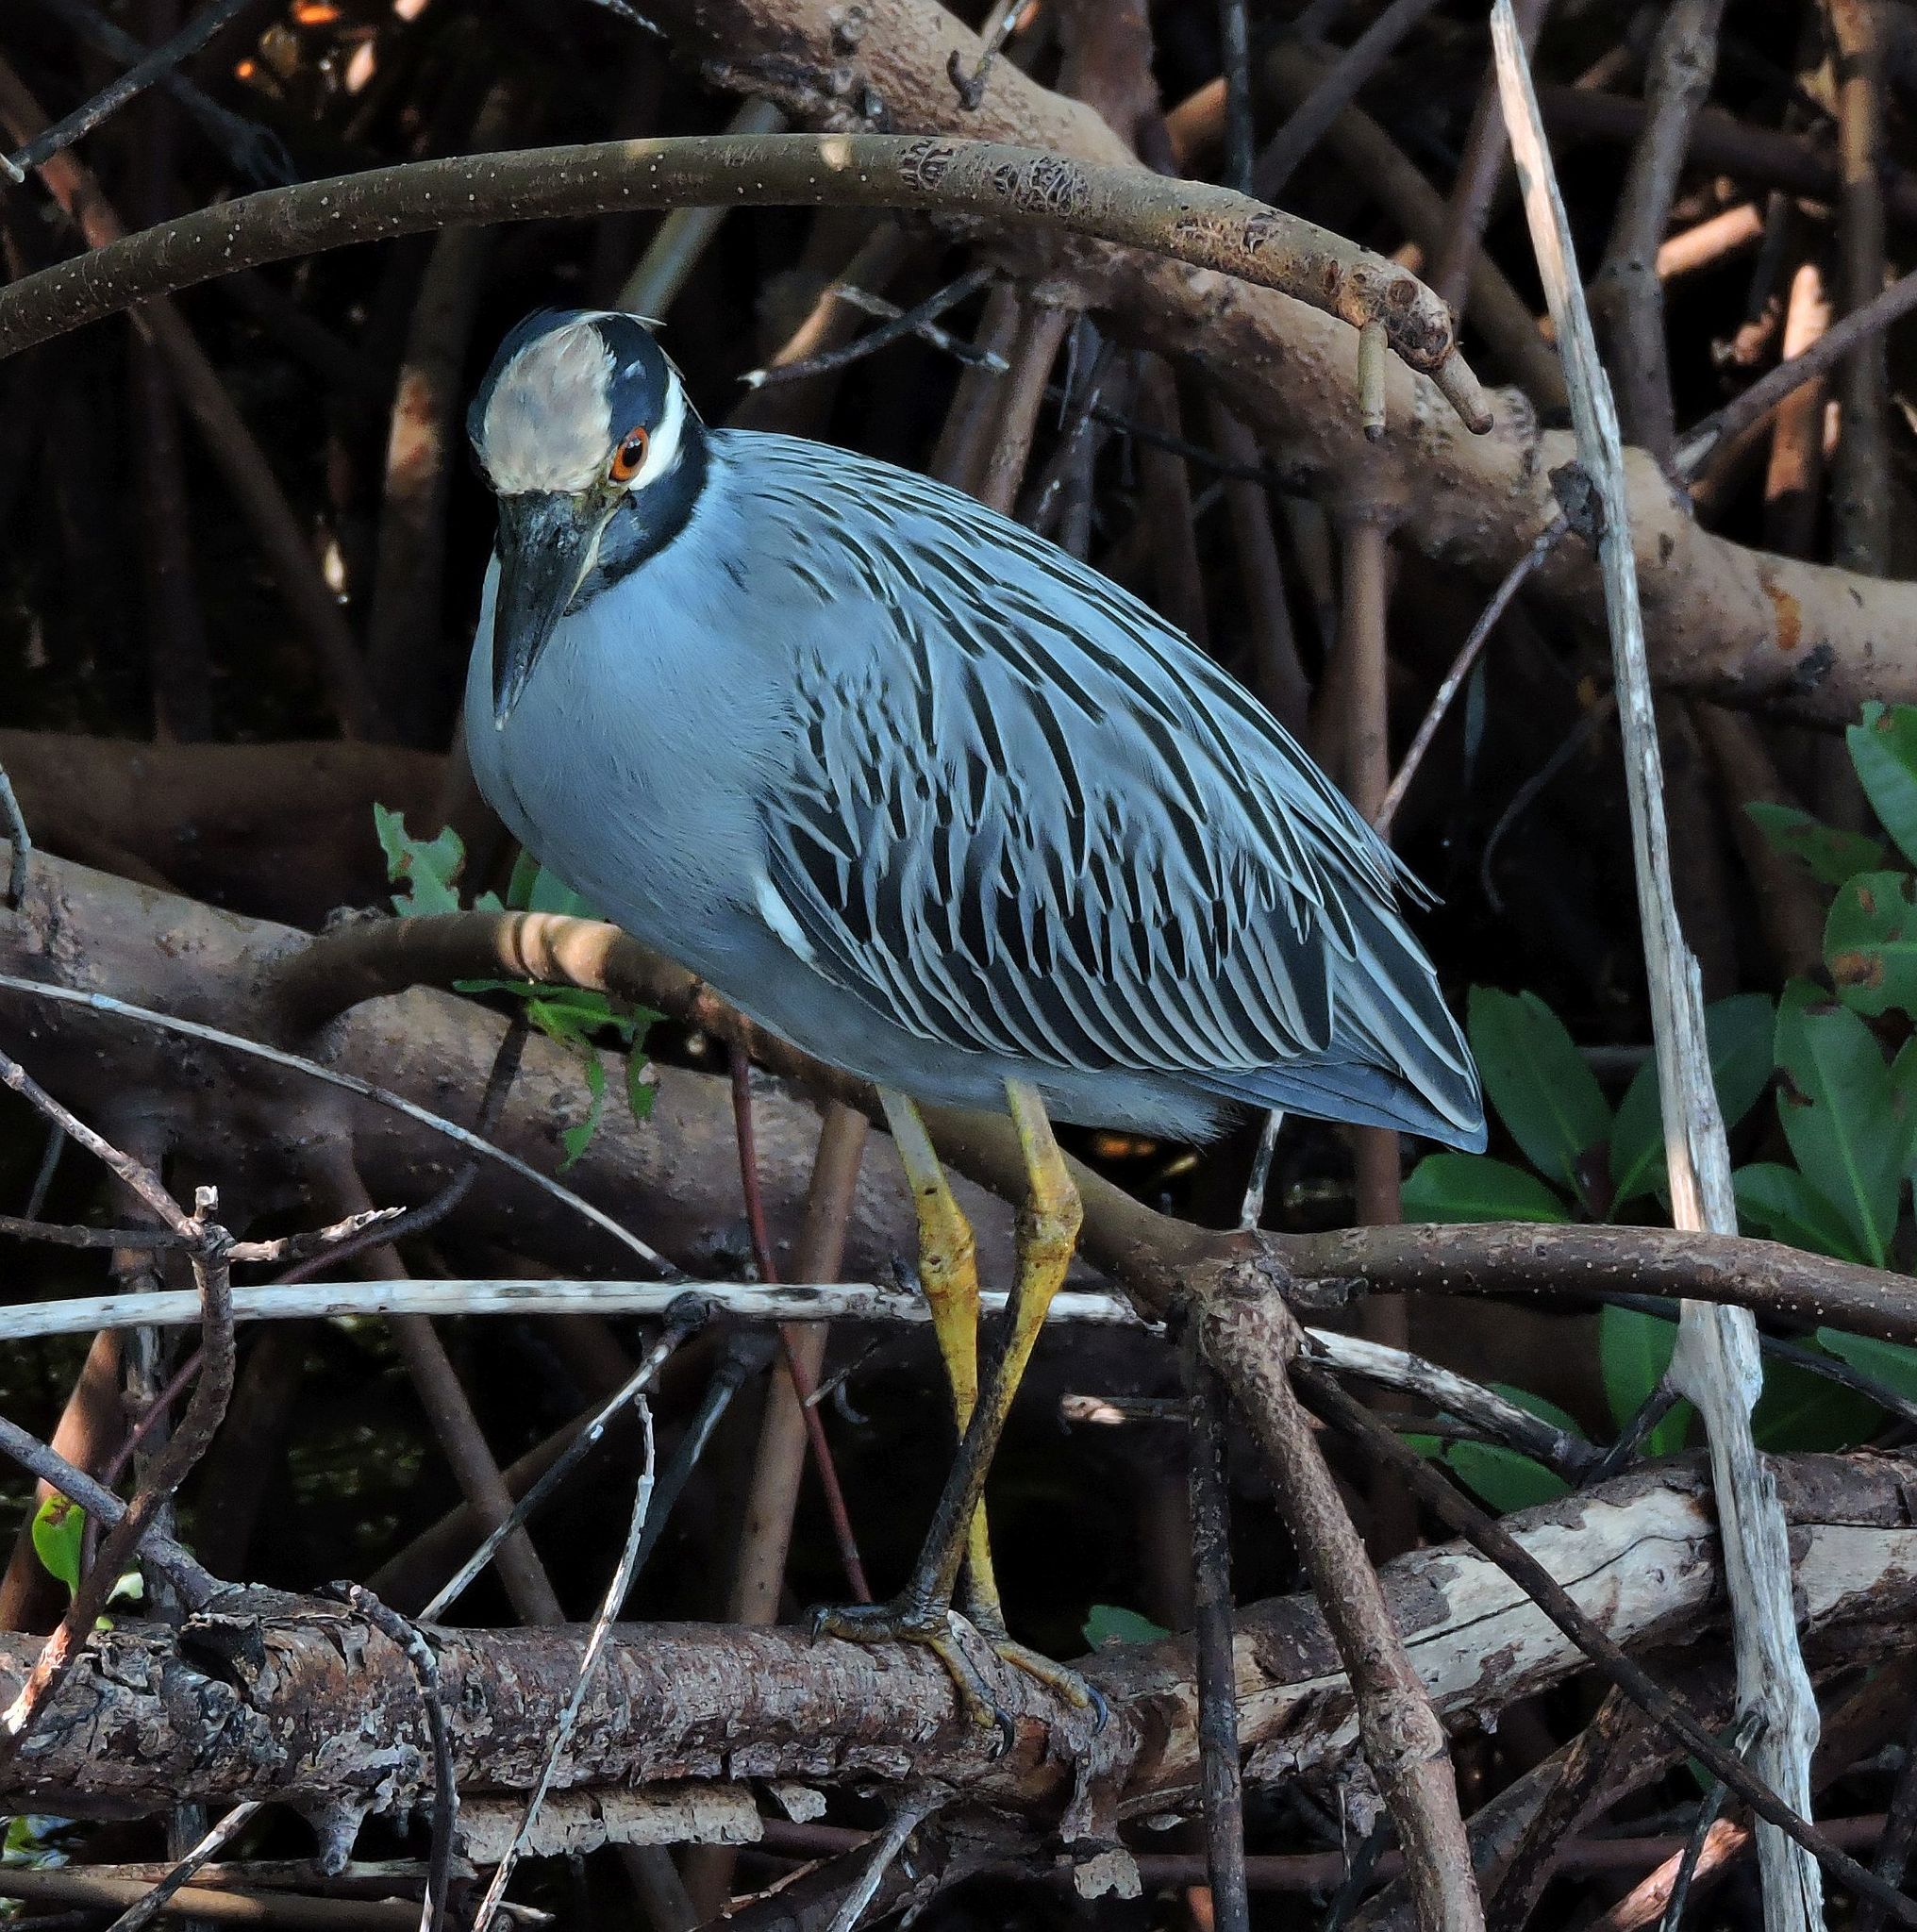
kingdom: Animalia
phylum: Chordata
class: Aves
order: Pelecaniformes
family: Ardeidae
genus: Nyctanassa
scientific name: Nyctanassa violacea
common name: Yellow-crowned night heron
